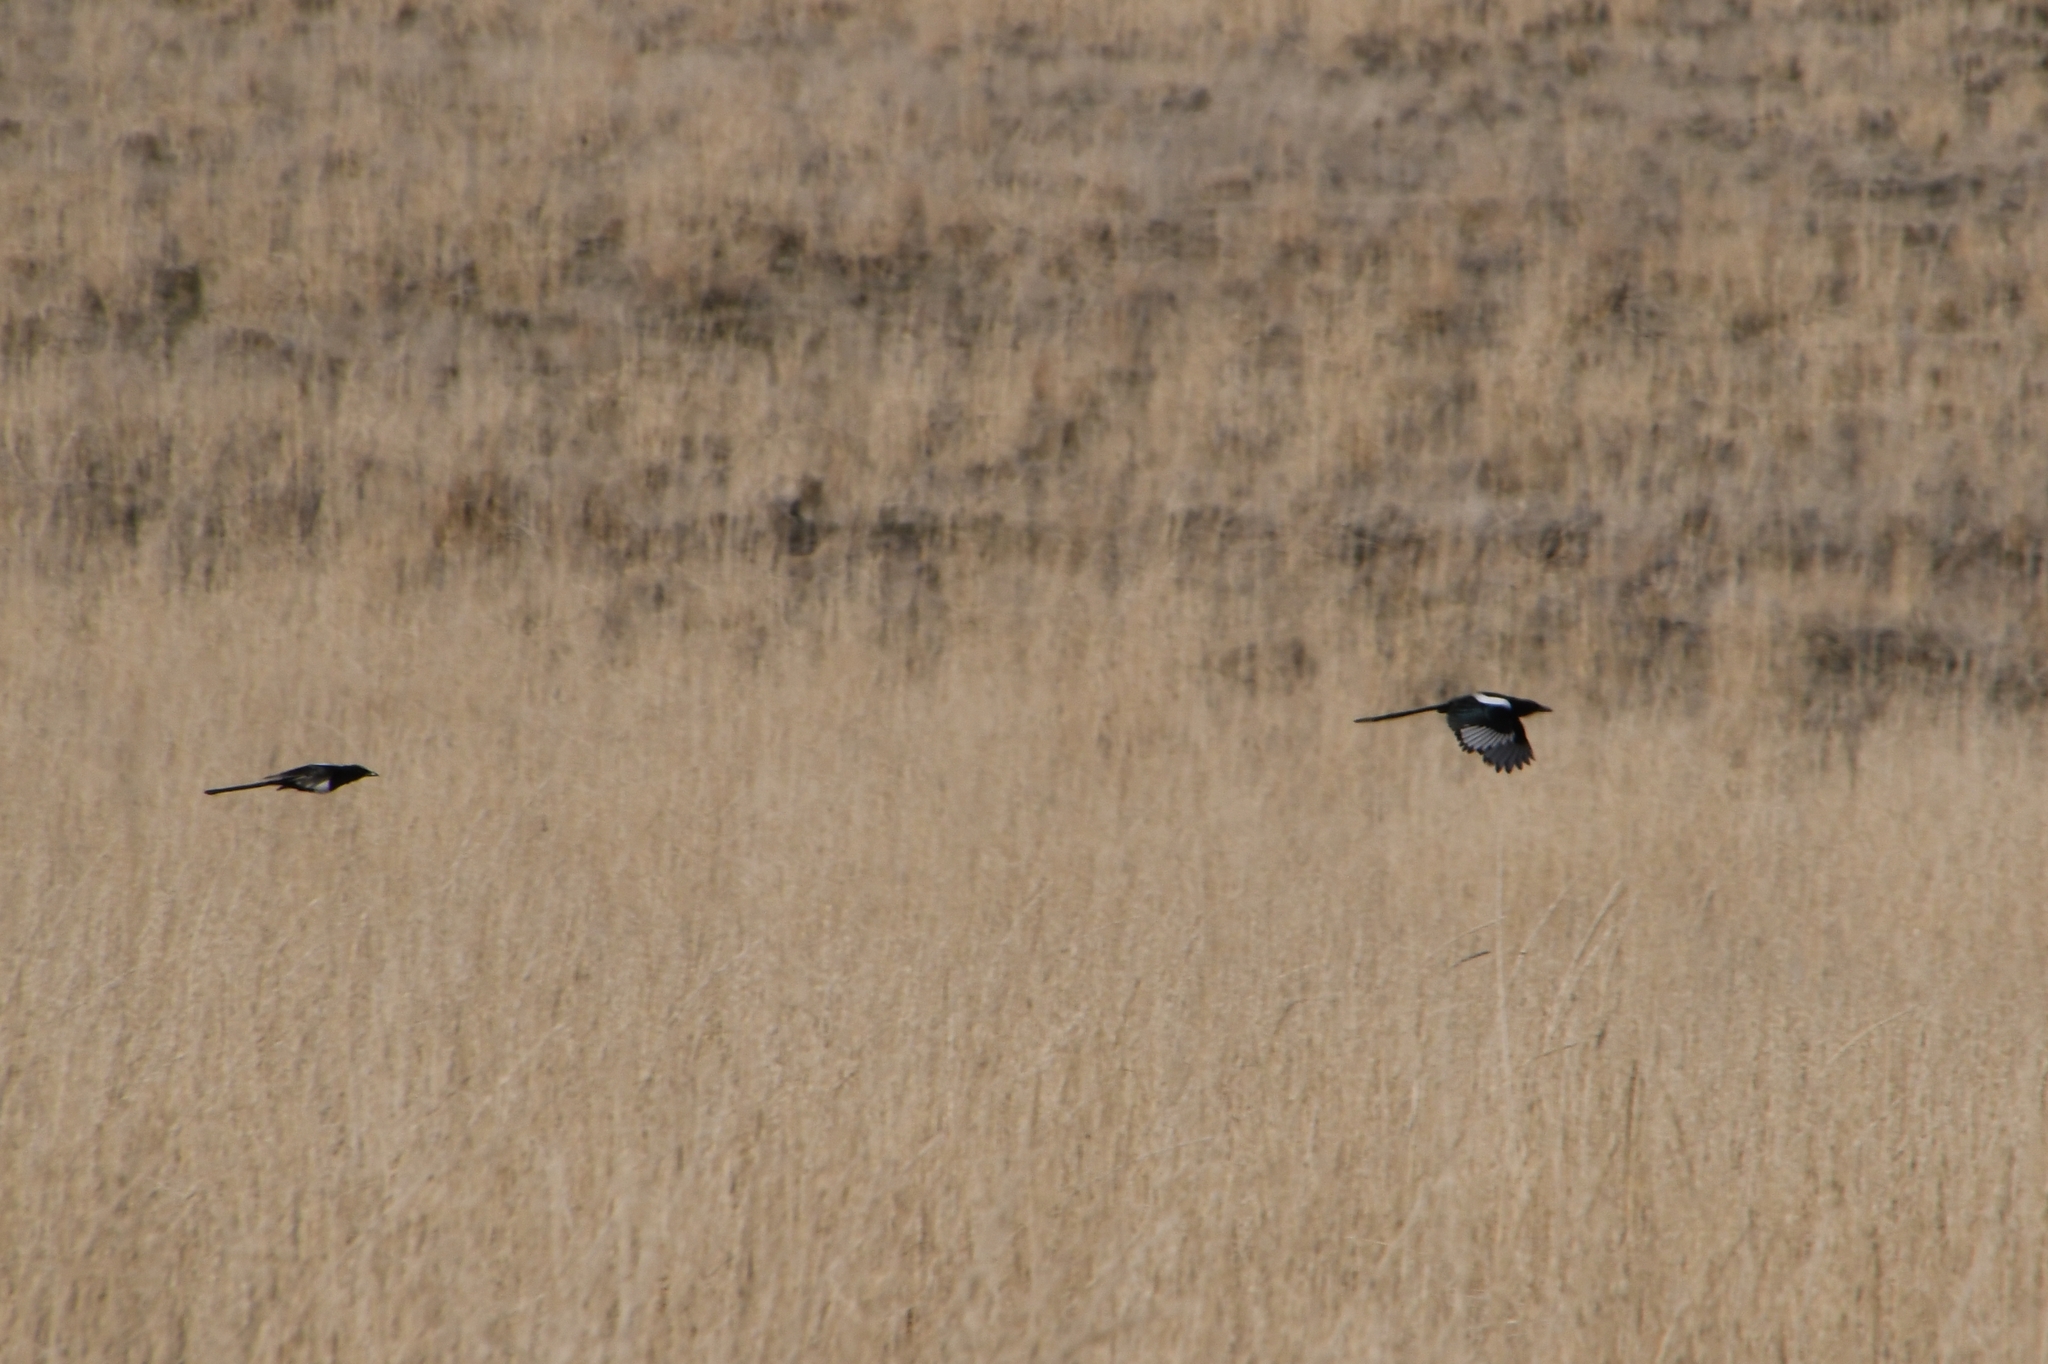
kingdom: Animalia
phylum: Chordata
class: Aves
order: Passeriformes
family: Corvidae
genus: Pica
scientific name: Pica hudsonia
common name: Black-billed magpie
